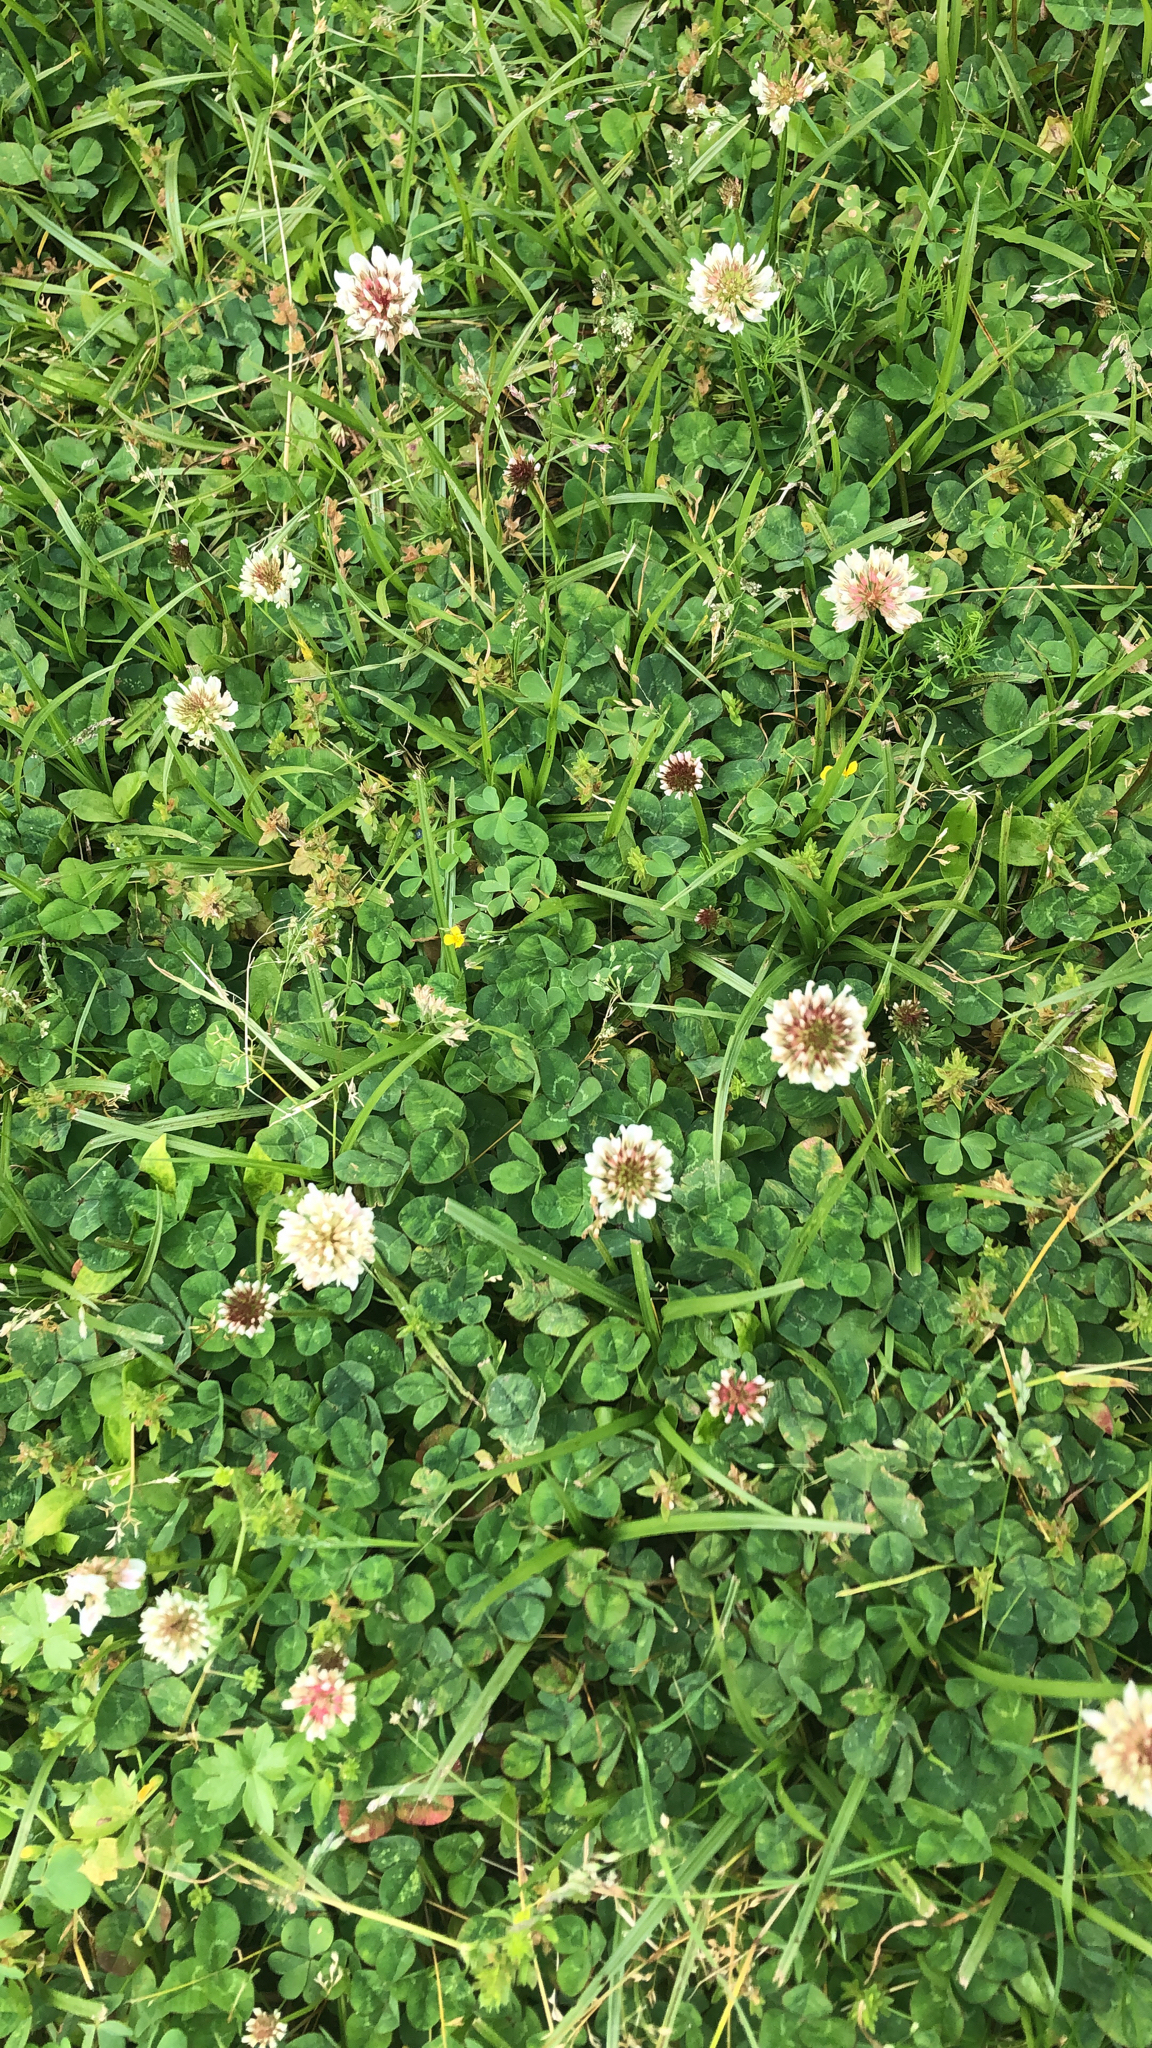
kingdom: Plantae
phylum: Tracheophyta
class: Magnoliopsida
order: Fabales
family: Fabaceae
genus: Trifolium
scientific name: Trifolium repens
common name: White clover
